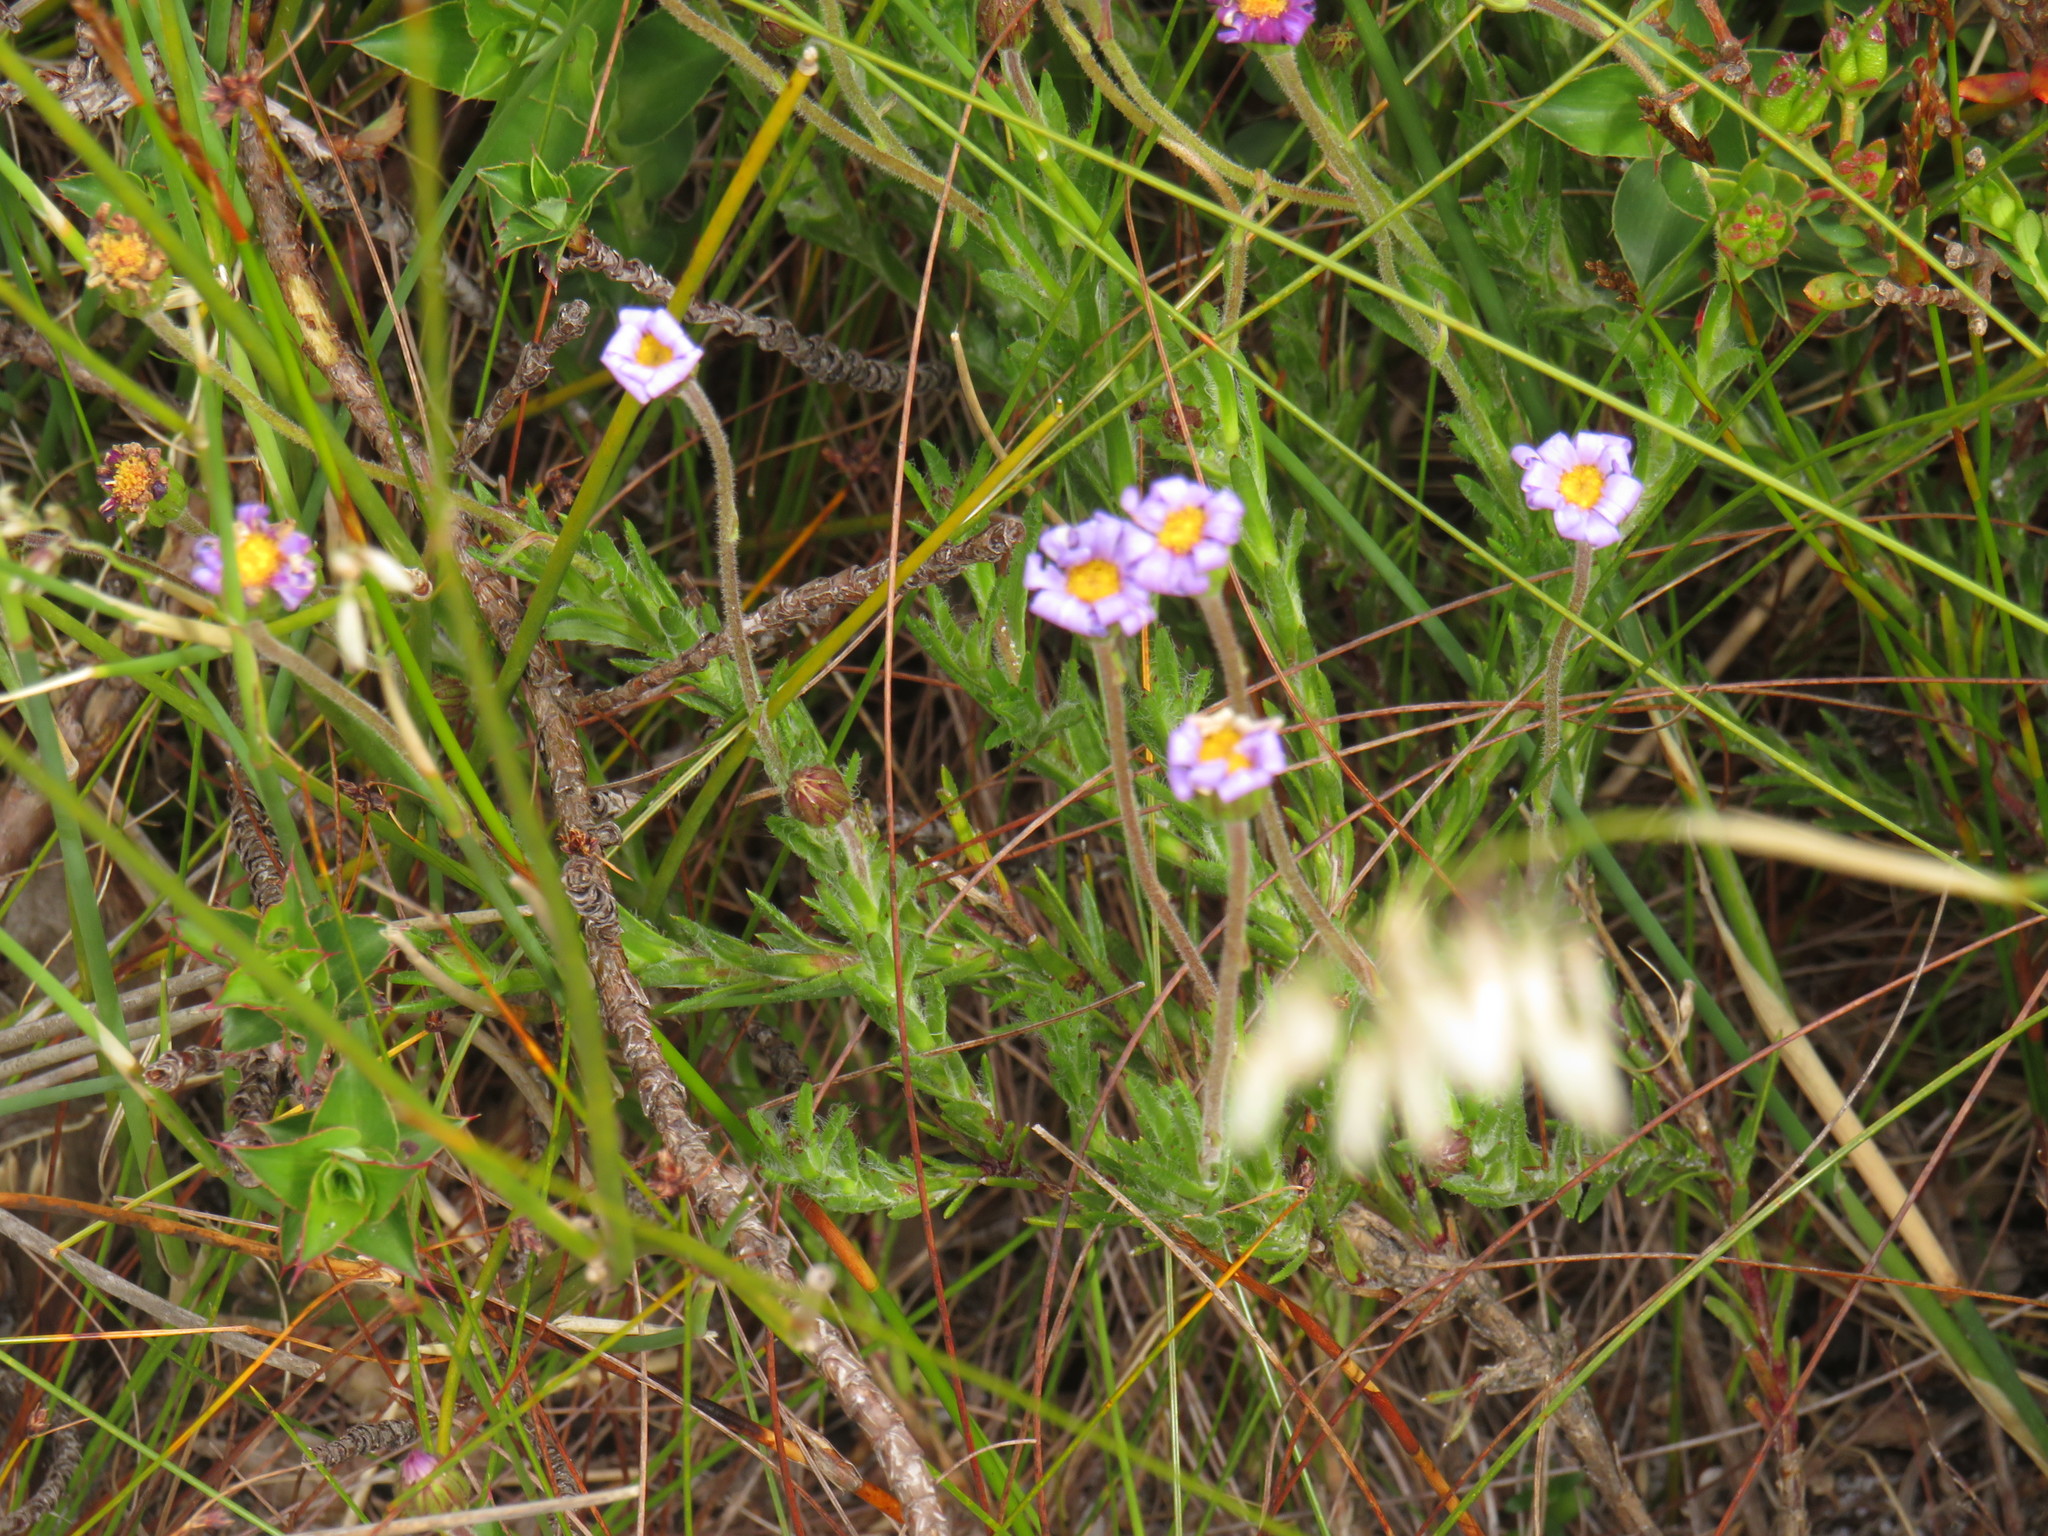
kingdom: Plantae
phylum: Tracheophyta
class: Magnoliopsida
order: Asterales
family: Asteraceae
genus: Zyrphelis
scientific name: Zyrphelis
